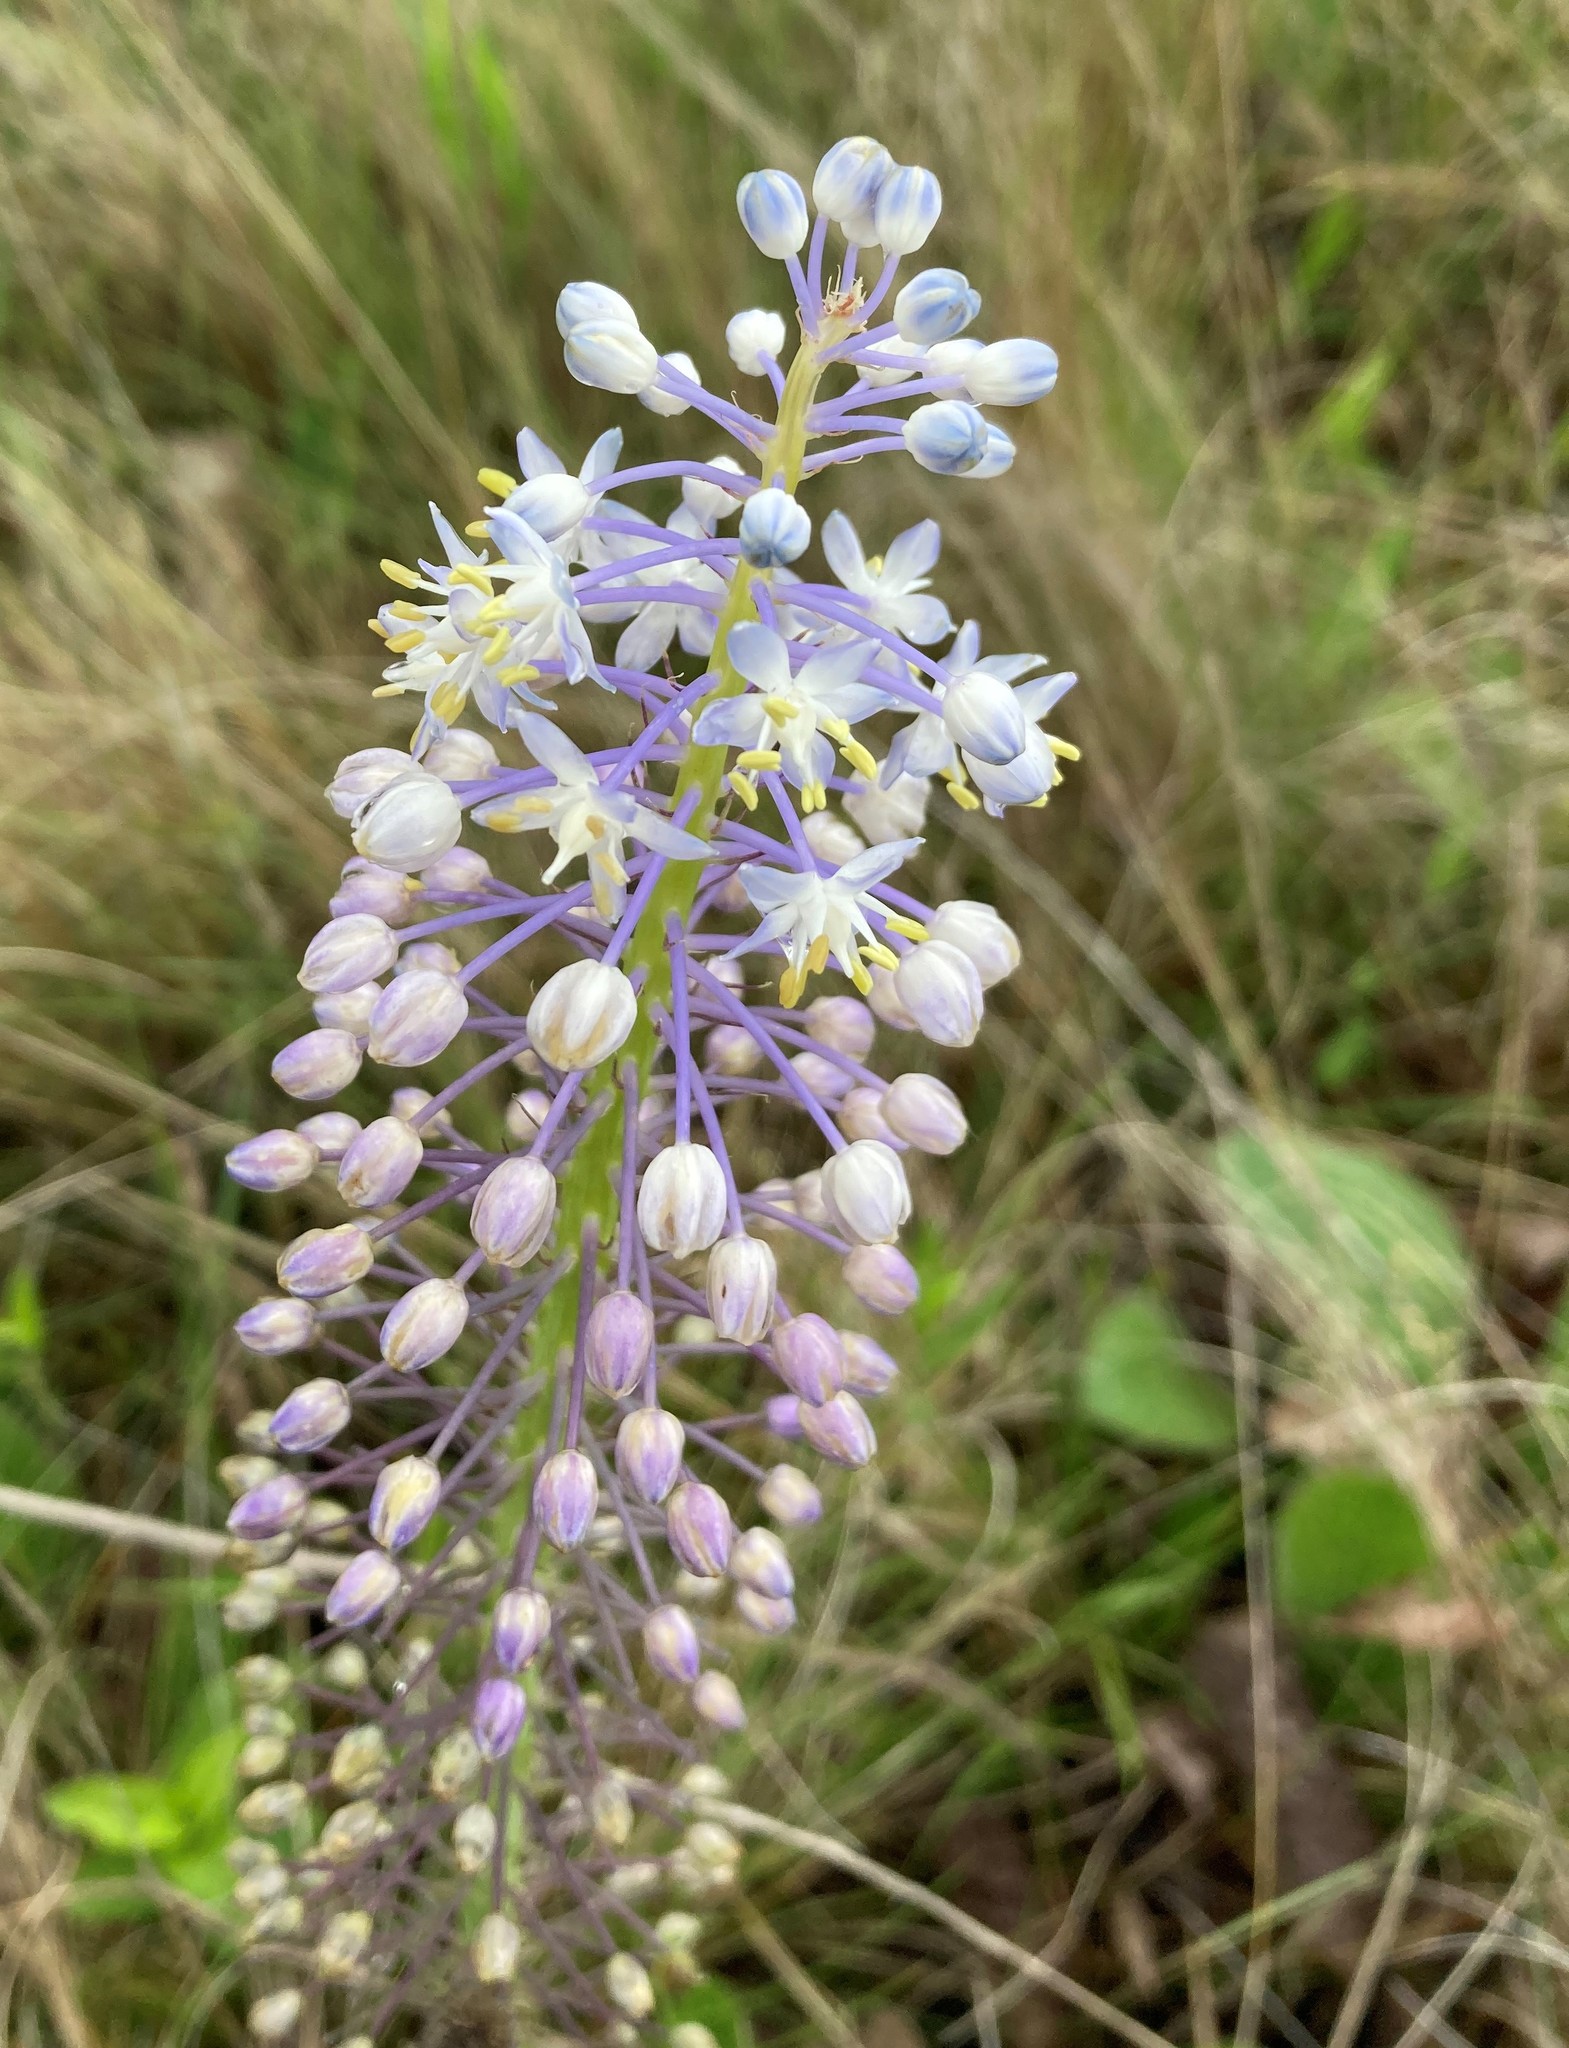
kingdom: Plantae
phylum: Tracheophyta
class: Liliopsida
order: Asparagales
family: Asparagaceae
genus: Merwilla
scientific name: Merwilla plumbea
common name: Blue-squill
